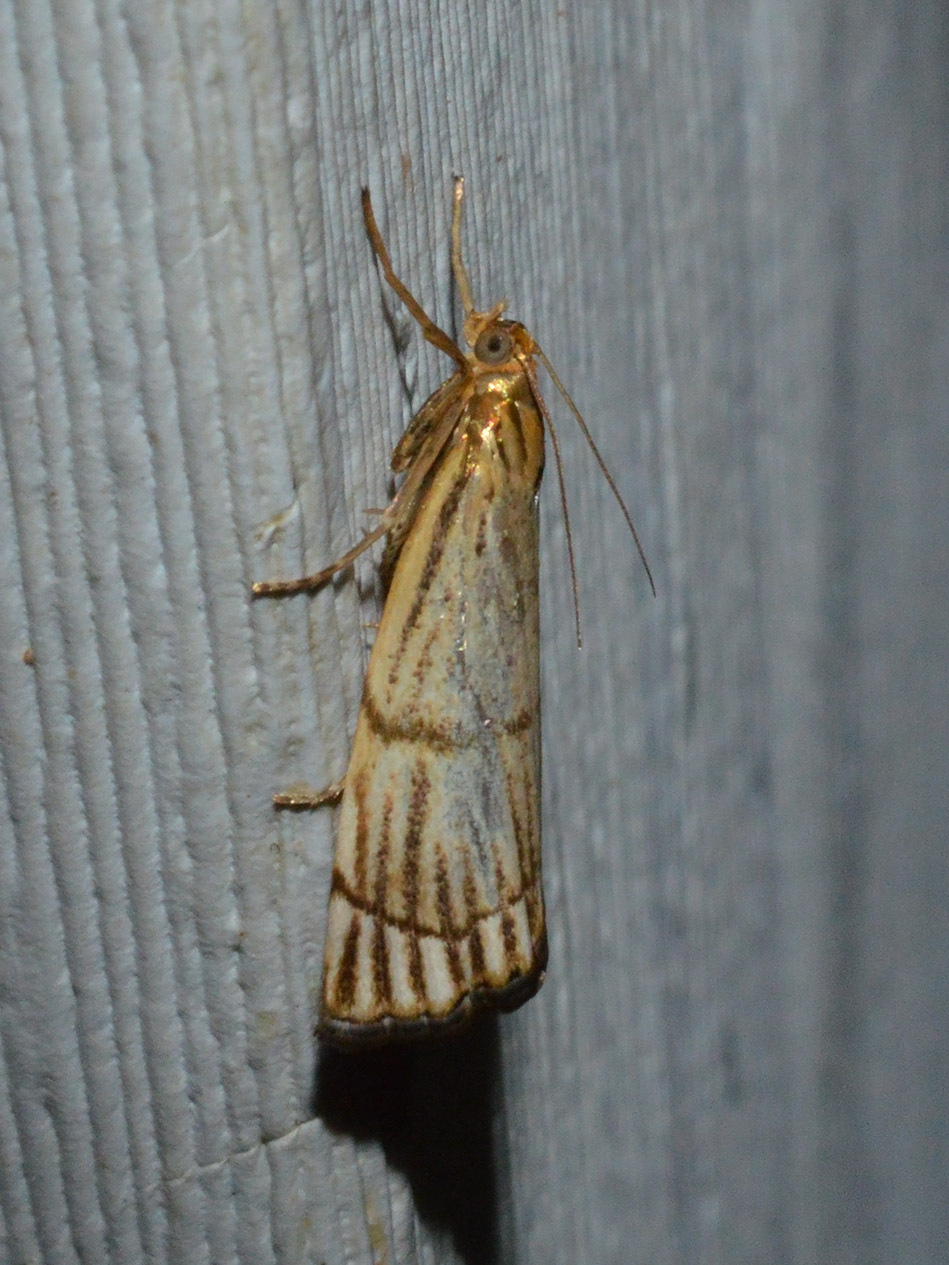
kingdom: Animalia
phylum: Arthropoda
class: Insecta
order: Lepidoptera
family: Crambidae
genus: Chrysocrambus
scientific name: Chrysocrambus linetella
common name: Orange-bar grass-veneer
